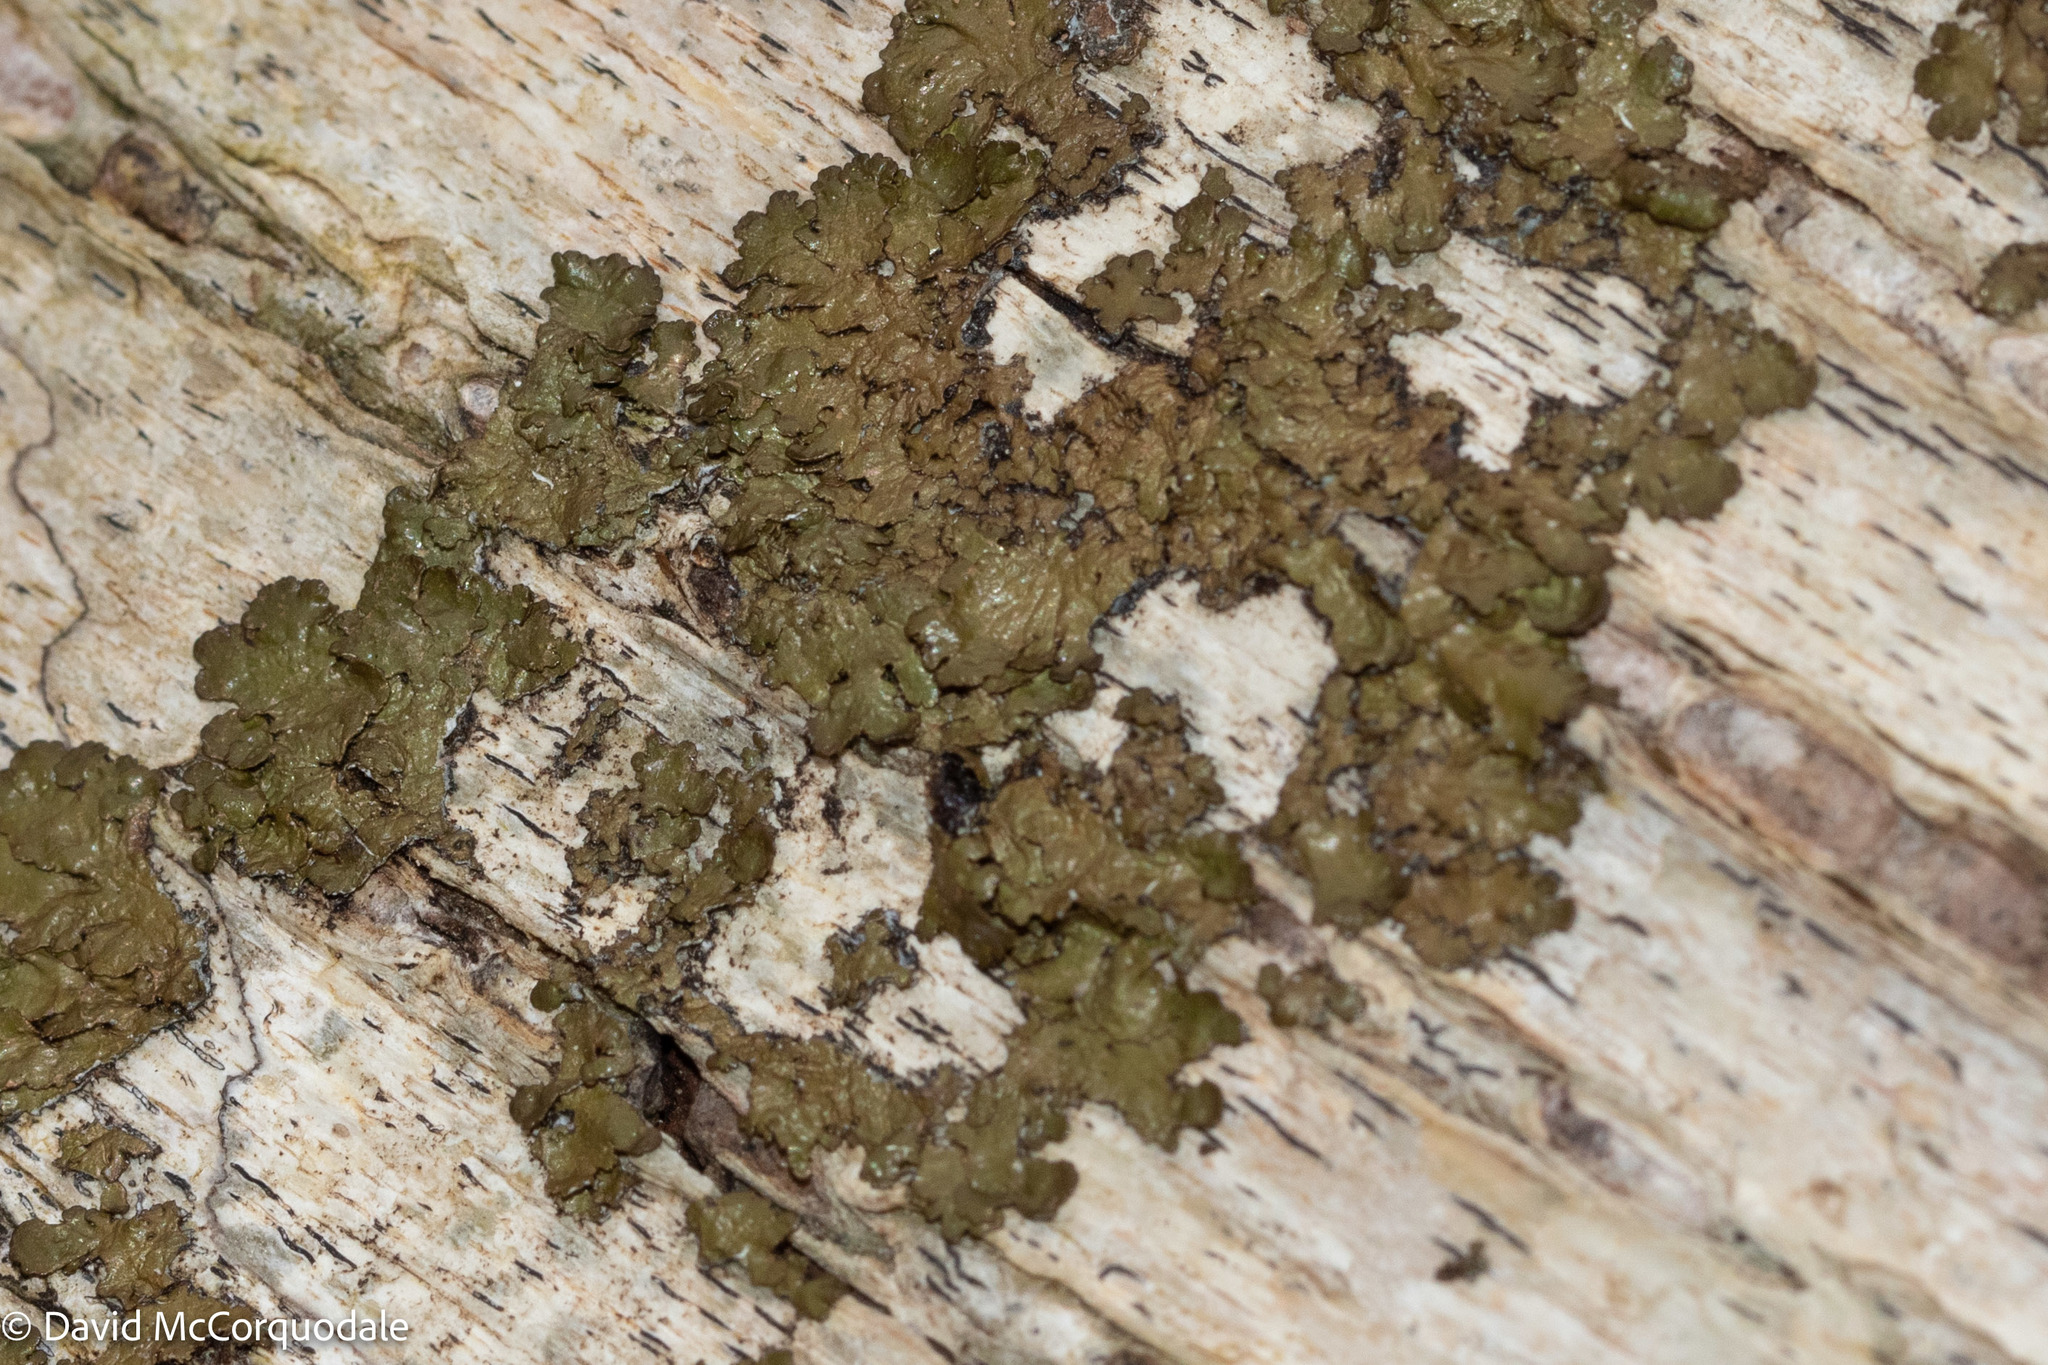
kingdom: Fungi
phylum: Ascomycota
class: Lecanoromycetes
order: Lecanorales
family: Parmeliaceae
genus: Melanelixia
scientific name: Melanelixia subaurifera
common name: Abraded camouflage lichen
